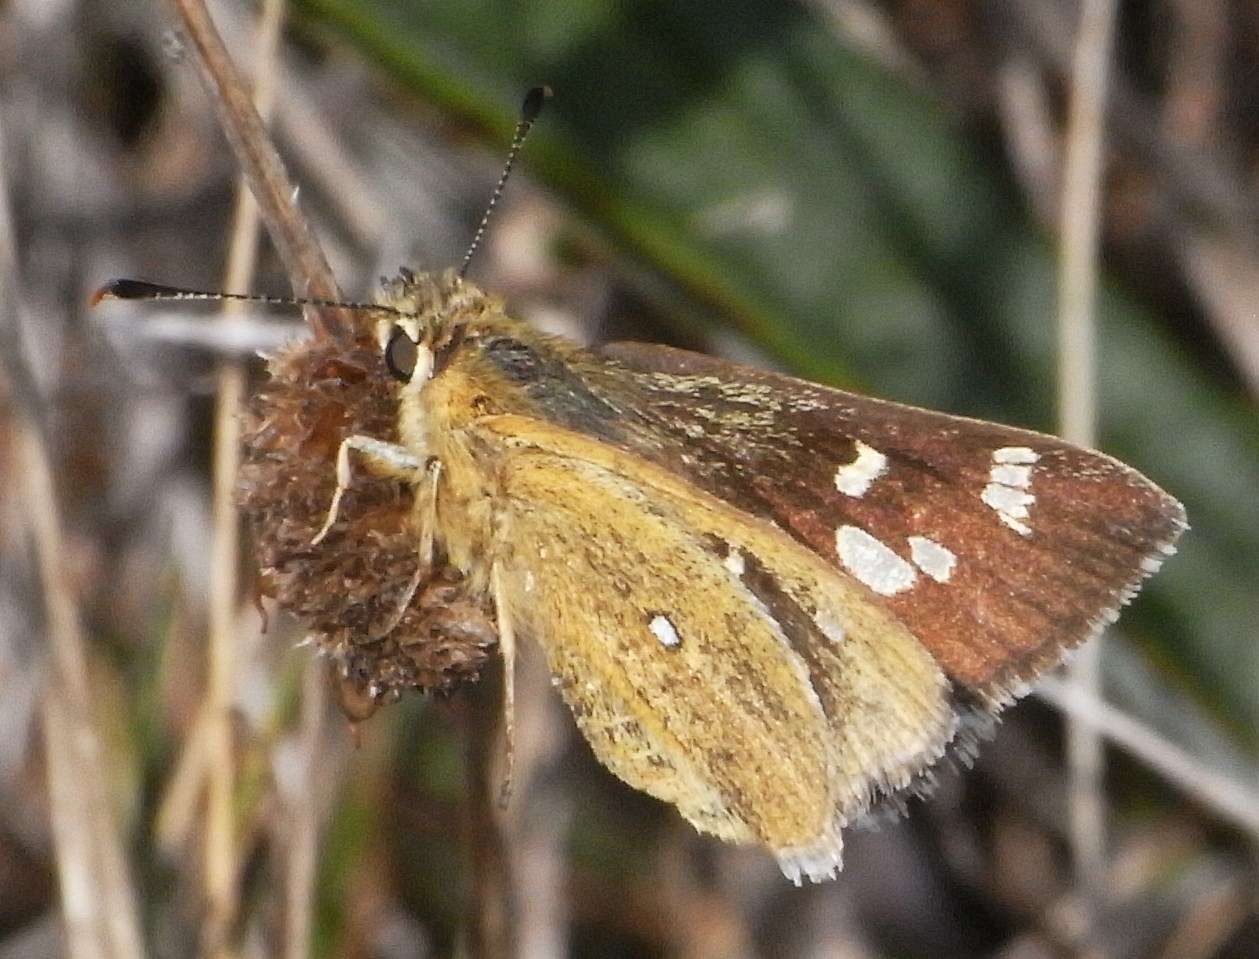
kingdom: Animalia
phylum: Arthropoda
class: Insecta
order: Lepidoptera
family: Hesperiidae
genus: Trapezites
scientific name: Trapezites lutea
